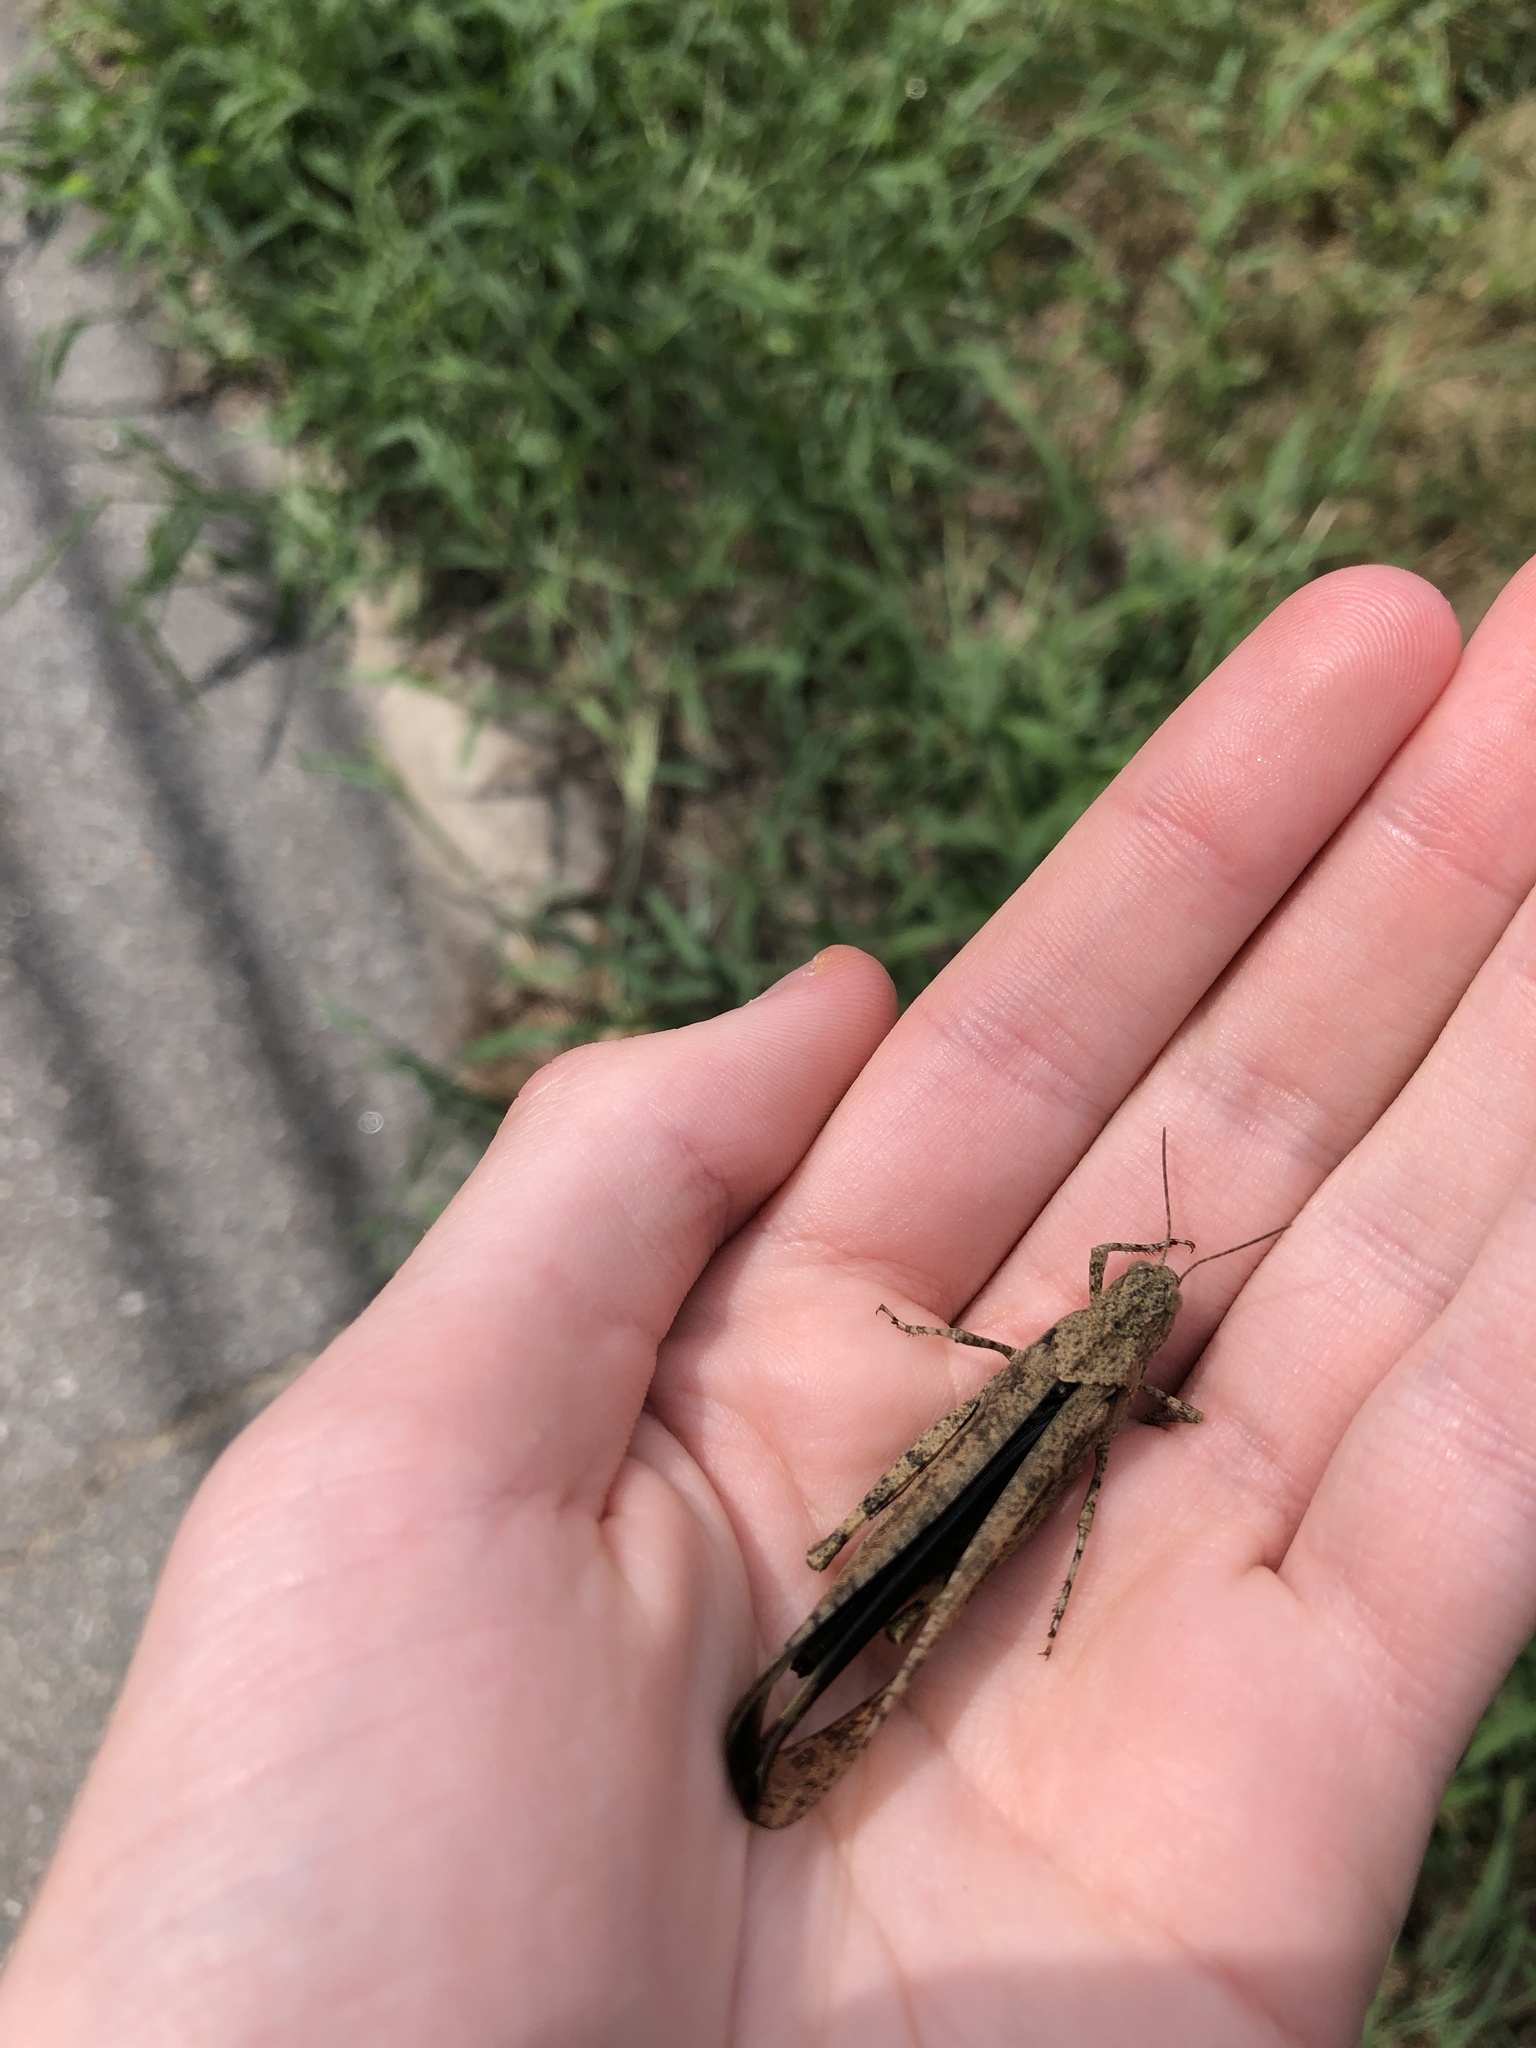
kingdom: Animalia
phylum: Arthropoda
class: Insecta
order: Orthoptera
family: Acrididae
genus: Dissosteira
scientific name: Dissosteira carolina
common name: Carolina grasshopper
